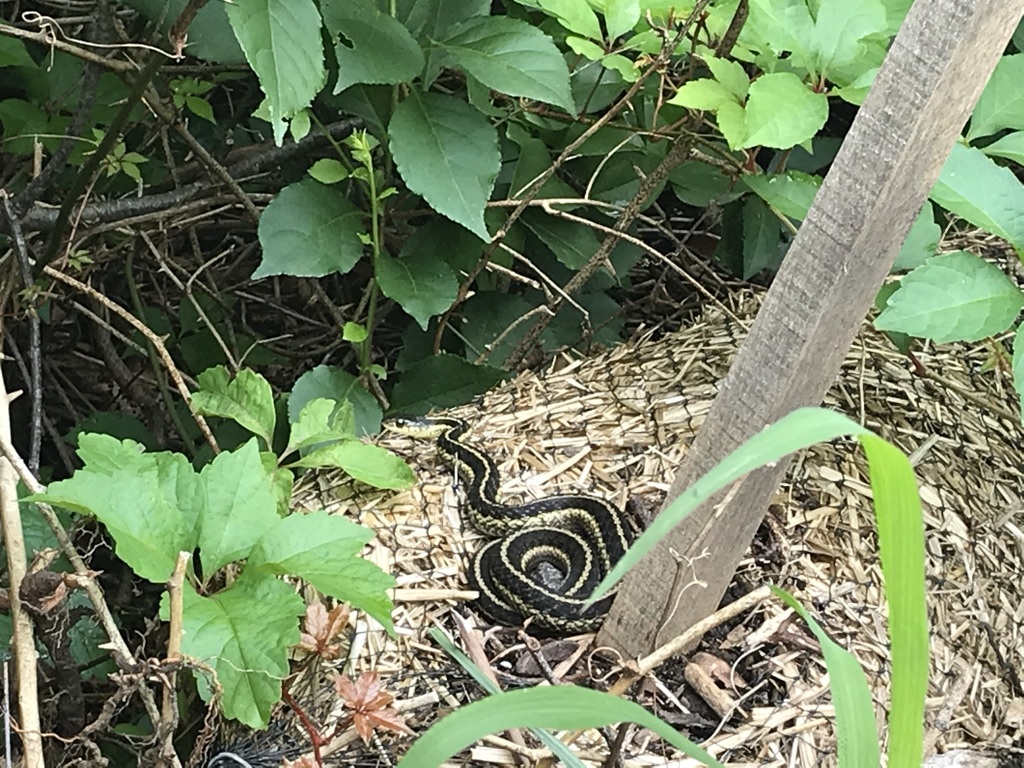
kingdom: Animalia
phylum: Chordata
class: Squamata
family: Colubridae
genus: Thamnophis
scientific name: Thamnophis sirtalis
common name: Common garter snake
